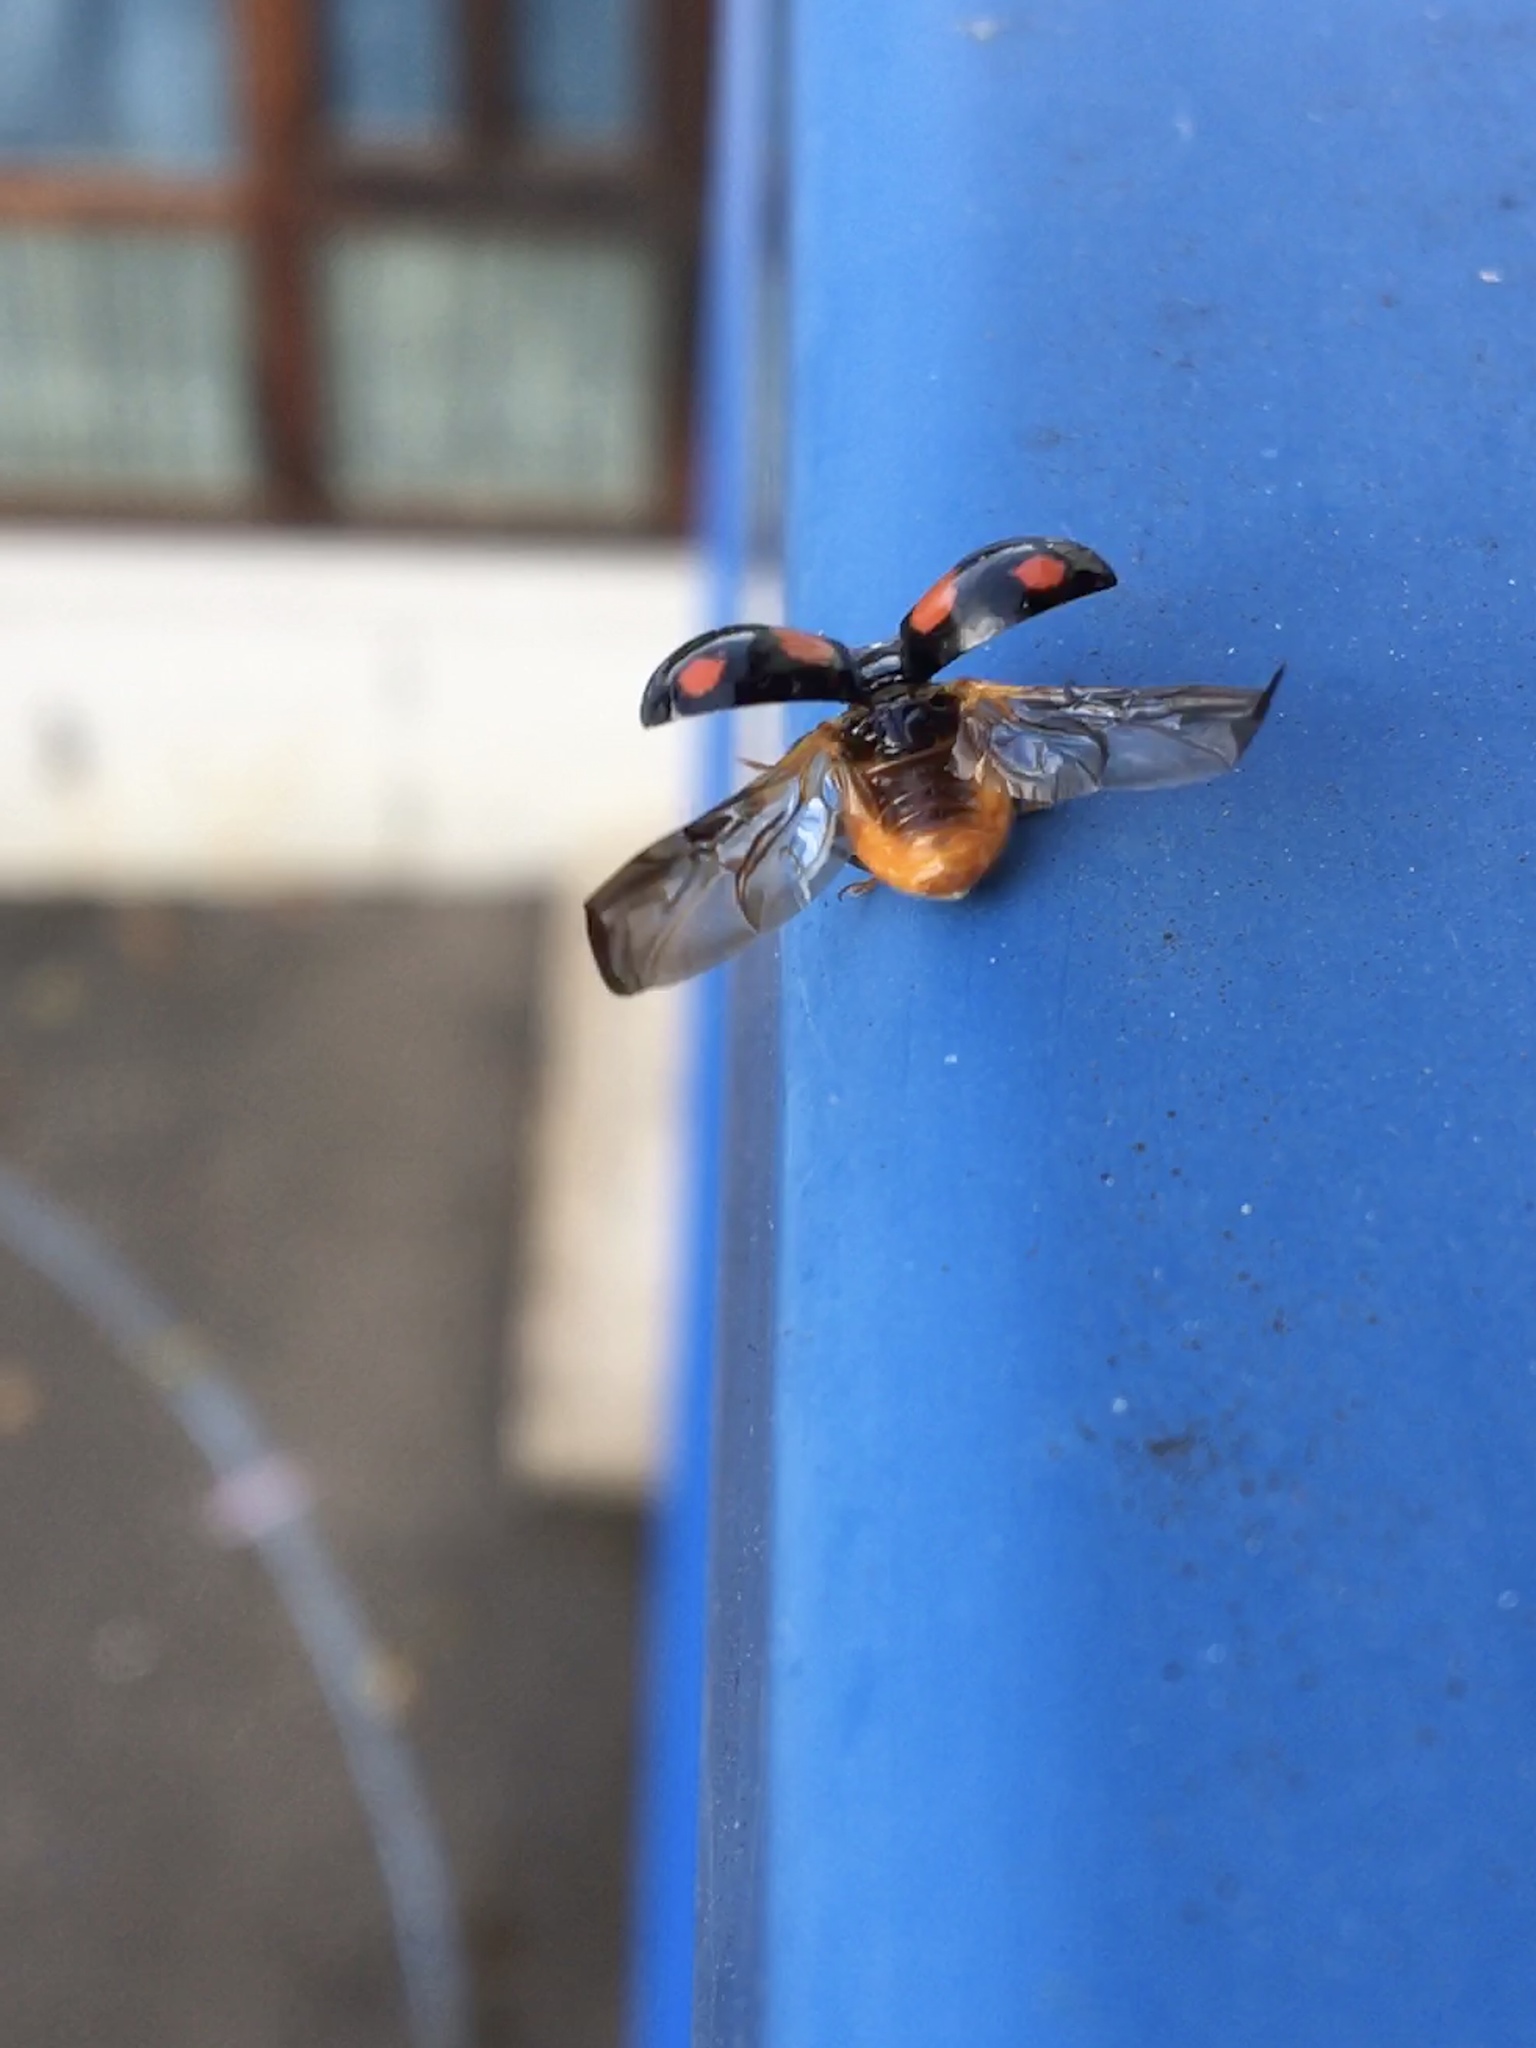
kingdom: Animalia
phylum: Arthropoda
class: Insecta
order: Coleoptera
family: Coccinellidae
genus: Harmonia
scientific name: Harmonia axyridis
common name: Harlequin ladybird
